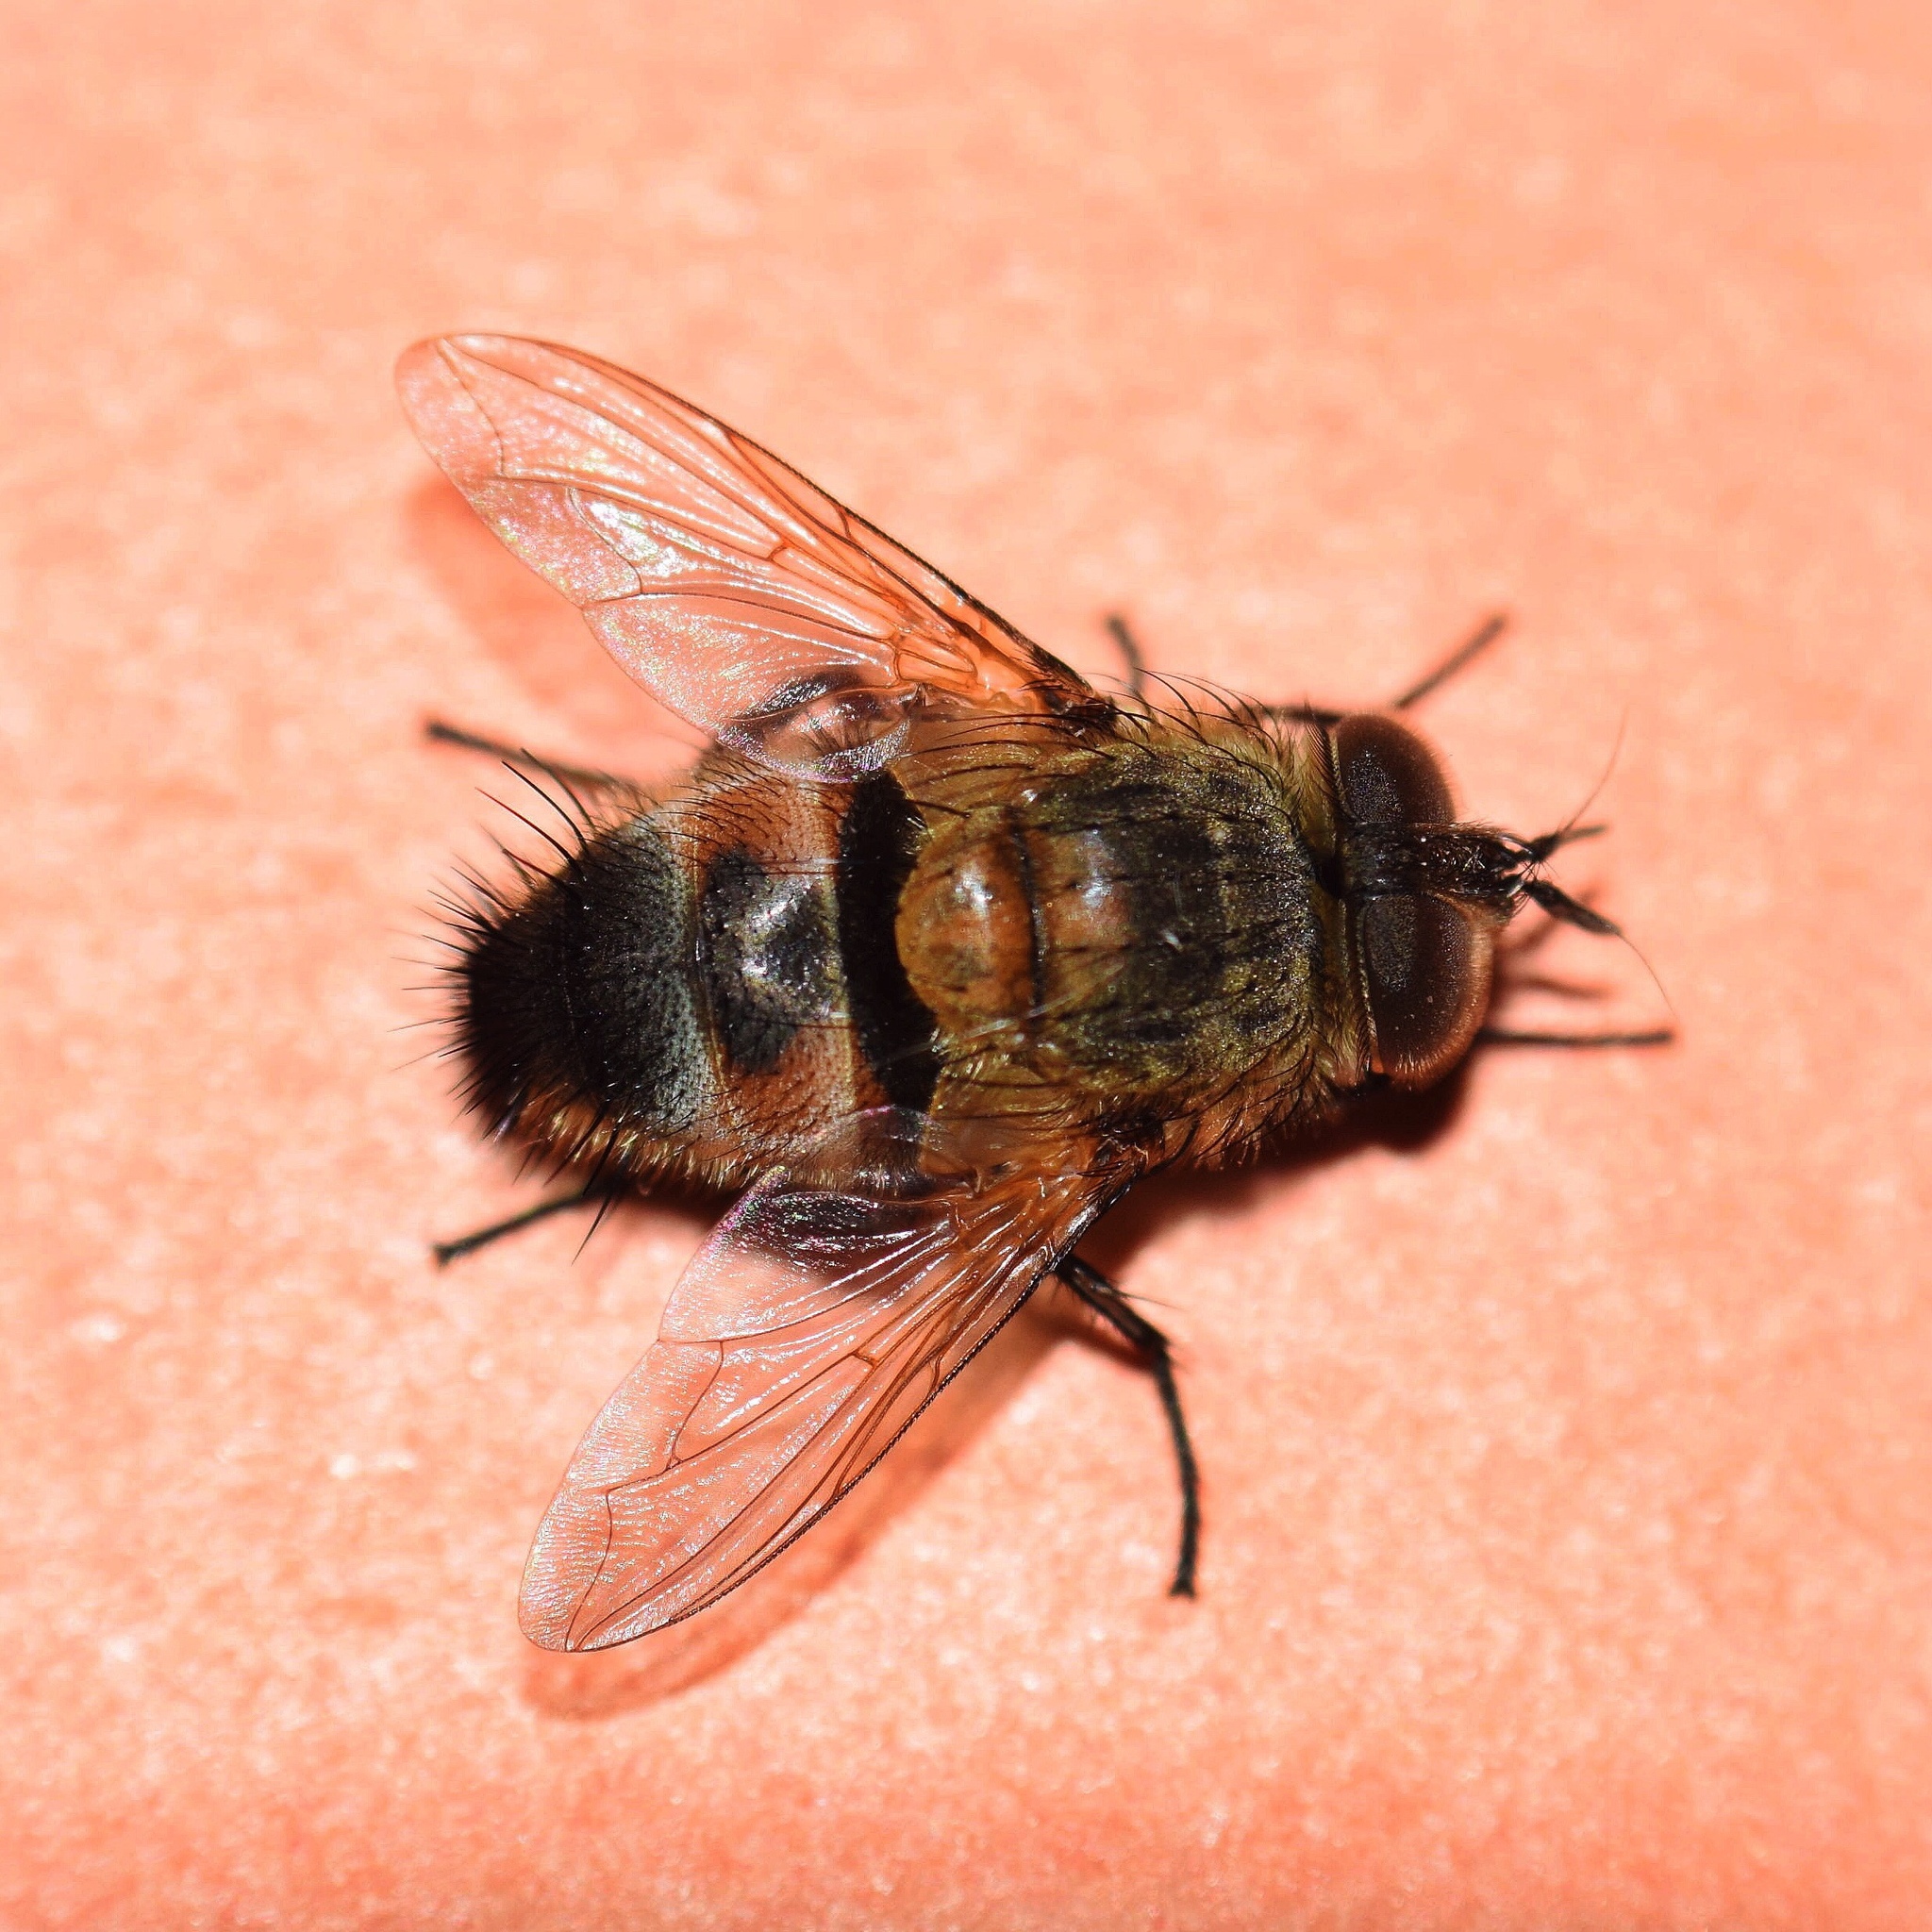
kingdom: Animalia
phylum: Arthropoda
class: Insecta
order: Diptera
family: Tachinidae
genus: Winthemia
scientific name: Winthemia quadrata
